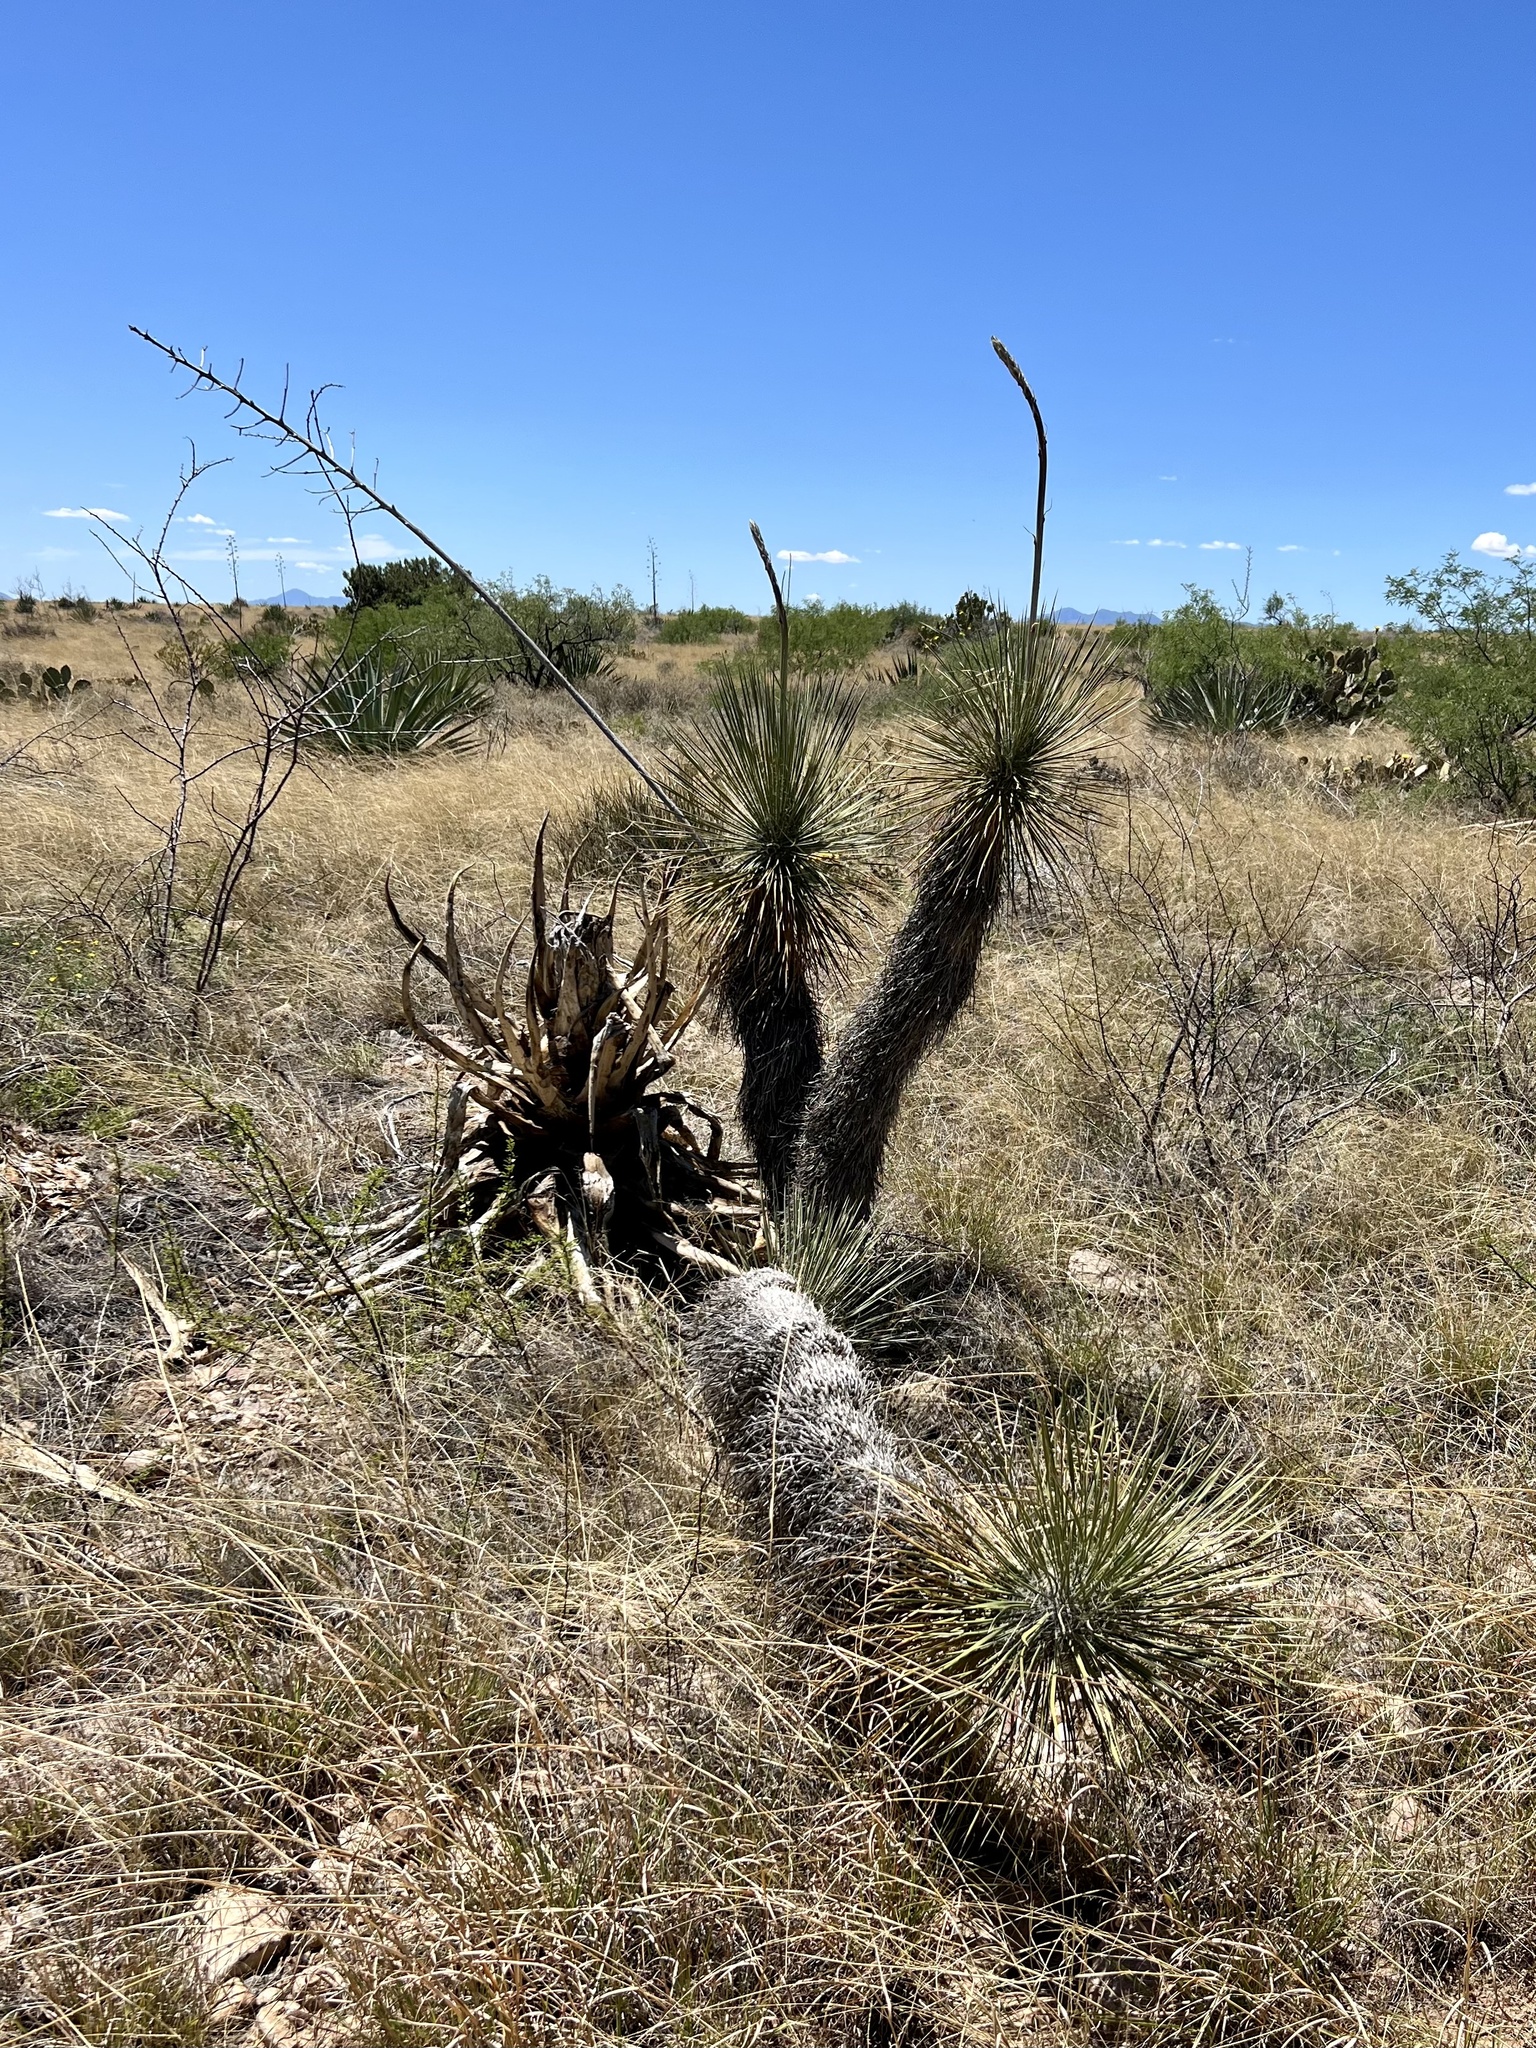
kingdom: Plantae
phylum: Tracheophyta
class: Liliopsida
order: Asparagales
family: Asparagaceae
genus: Yucca
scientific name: Yucca elata
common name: Palmella
